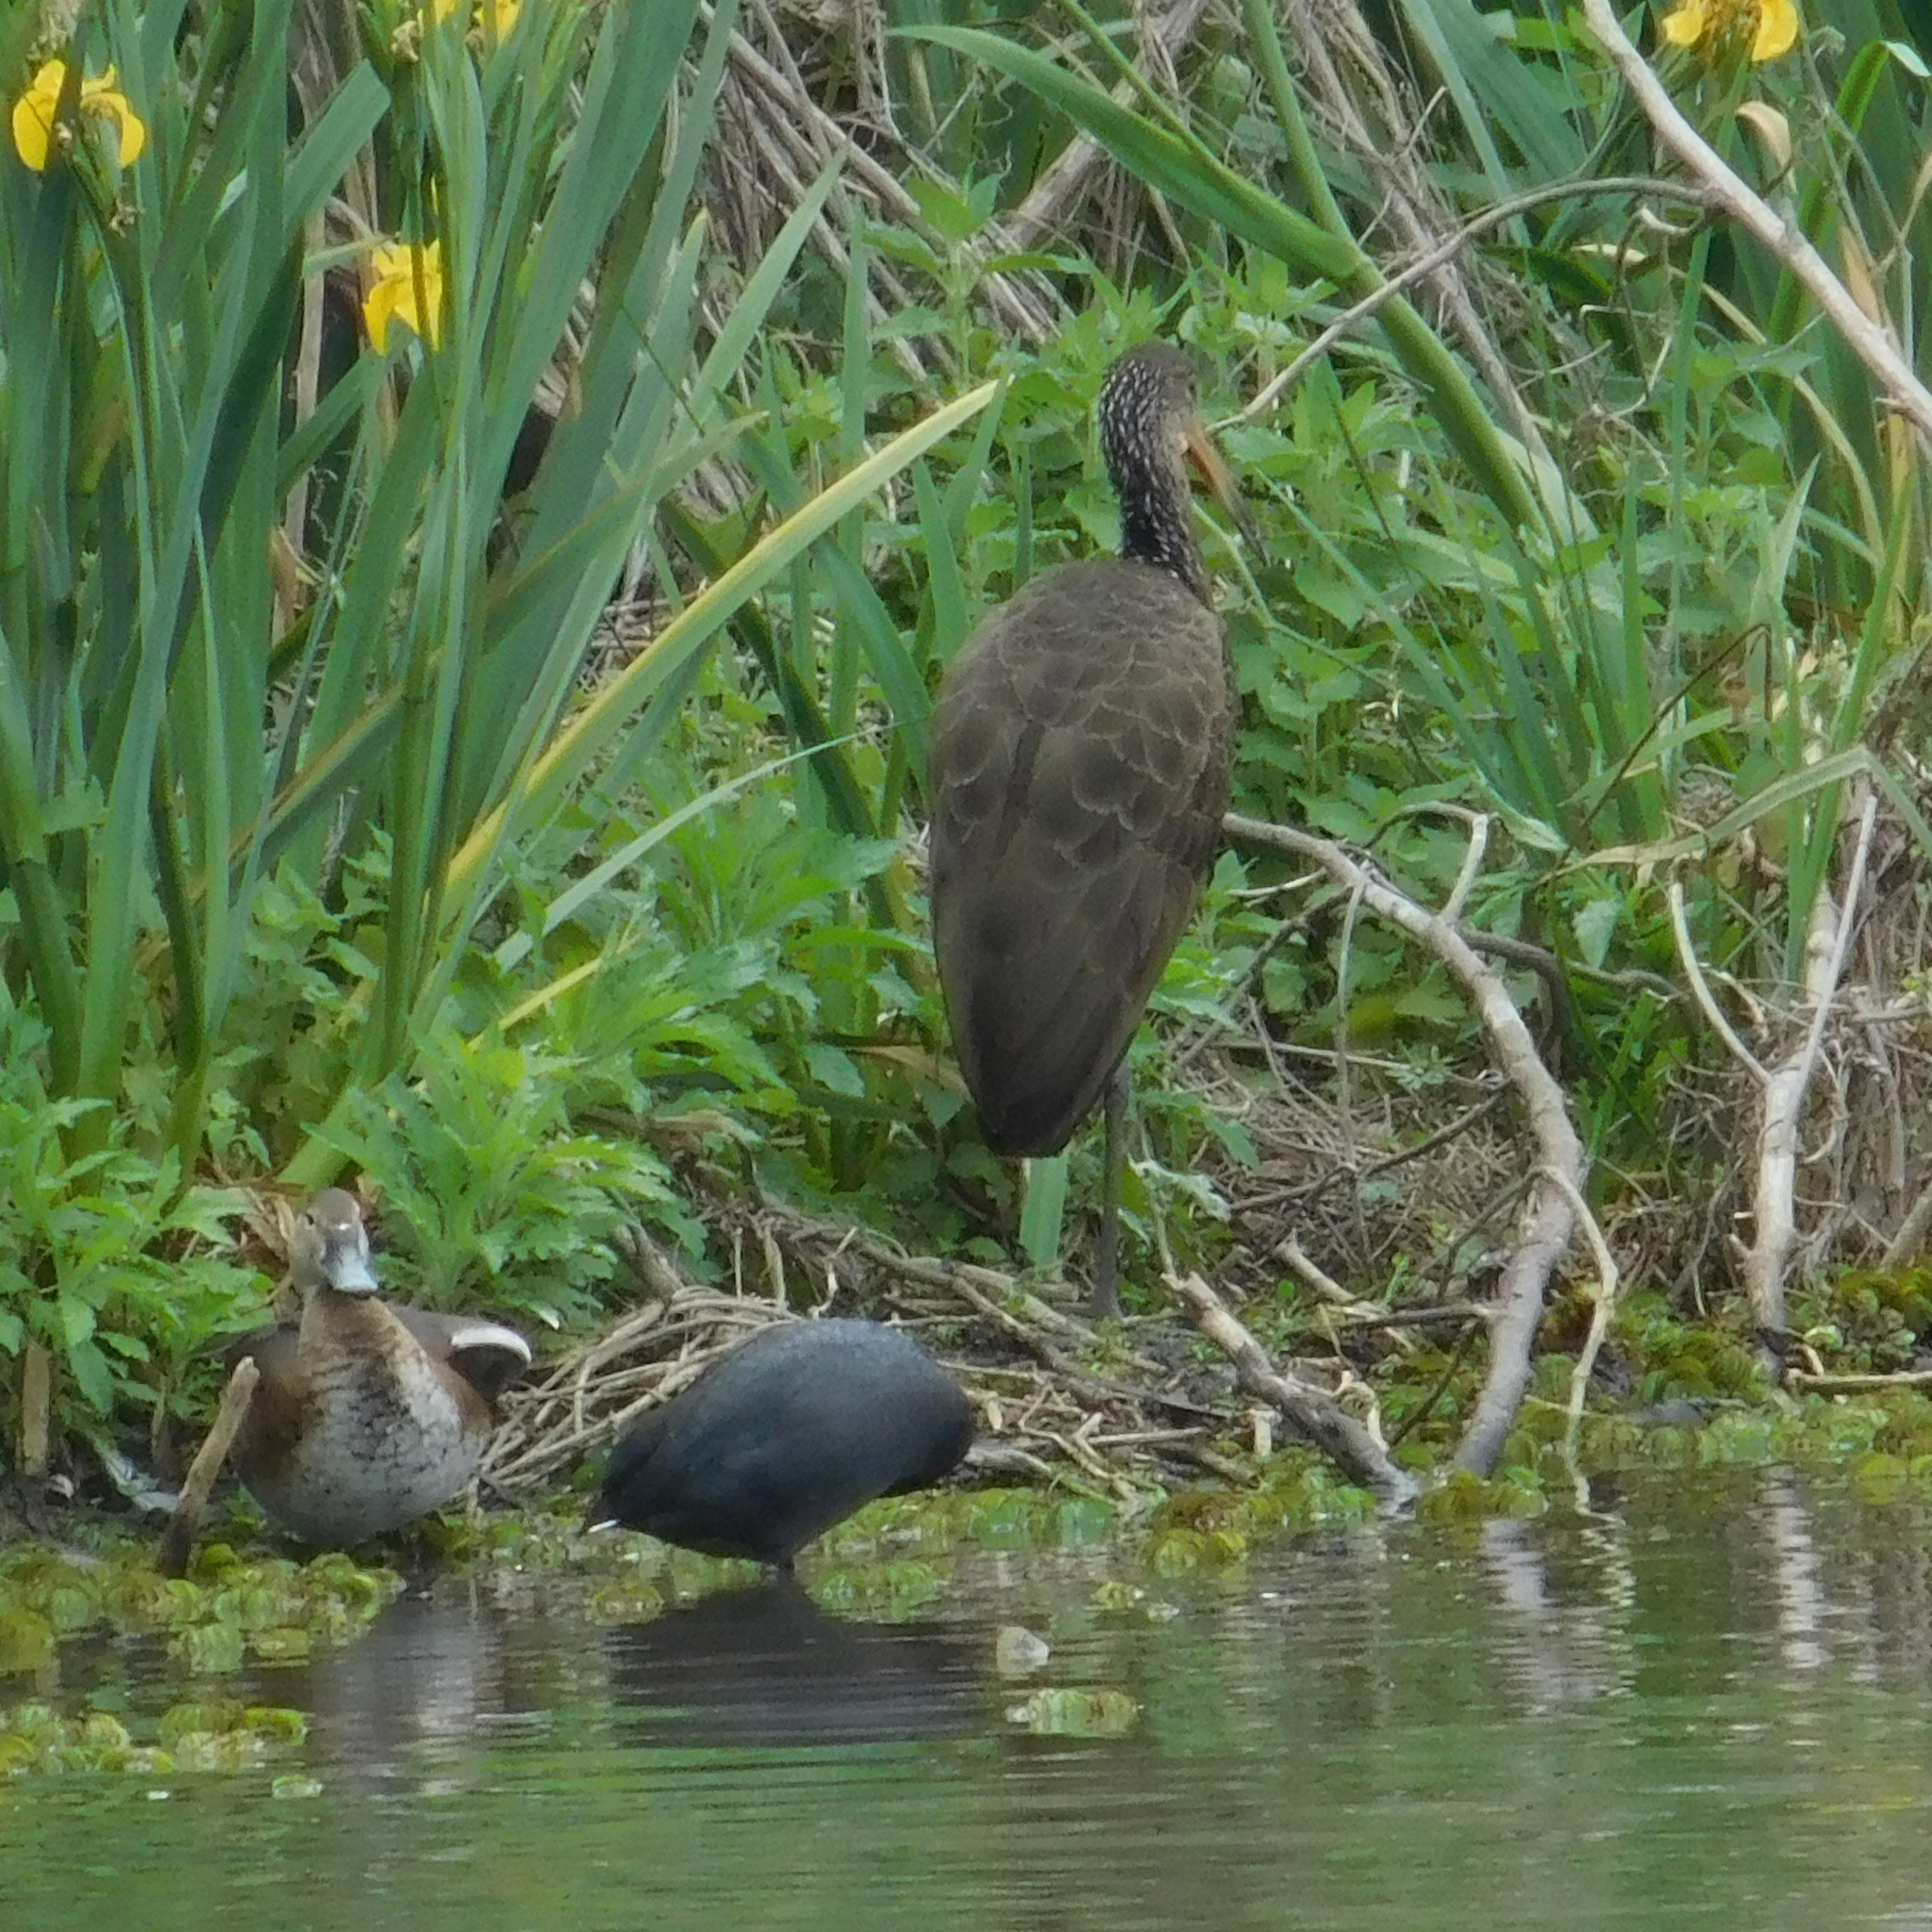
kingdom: Animalia
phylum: Chordata
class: Aves
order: Gruiformes
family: Aramidae
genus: Aramus
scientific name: Aramus guarauna
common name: Limpkin
